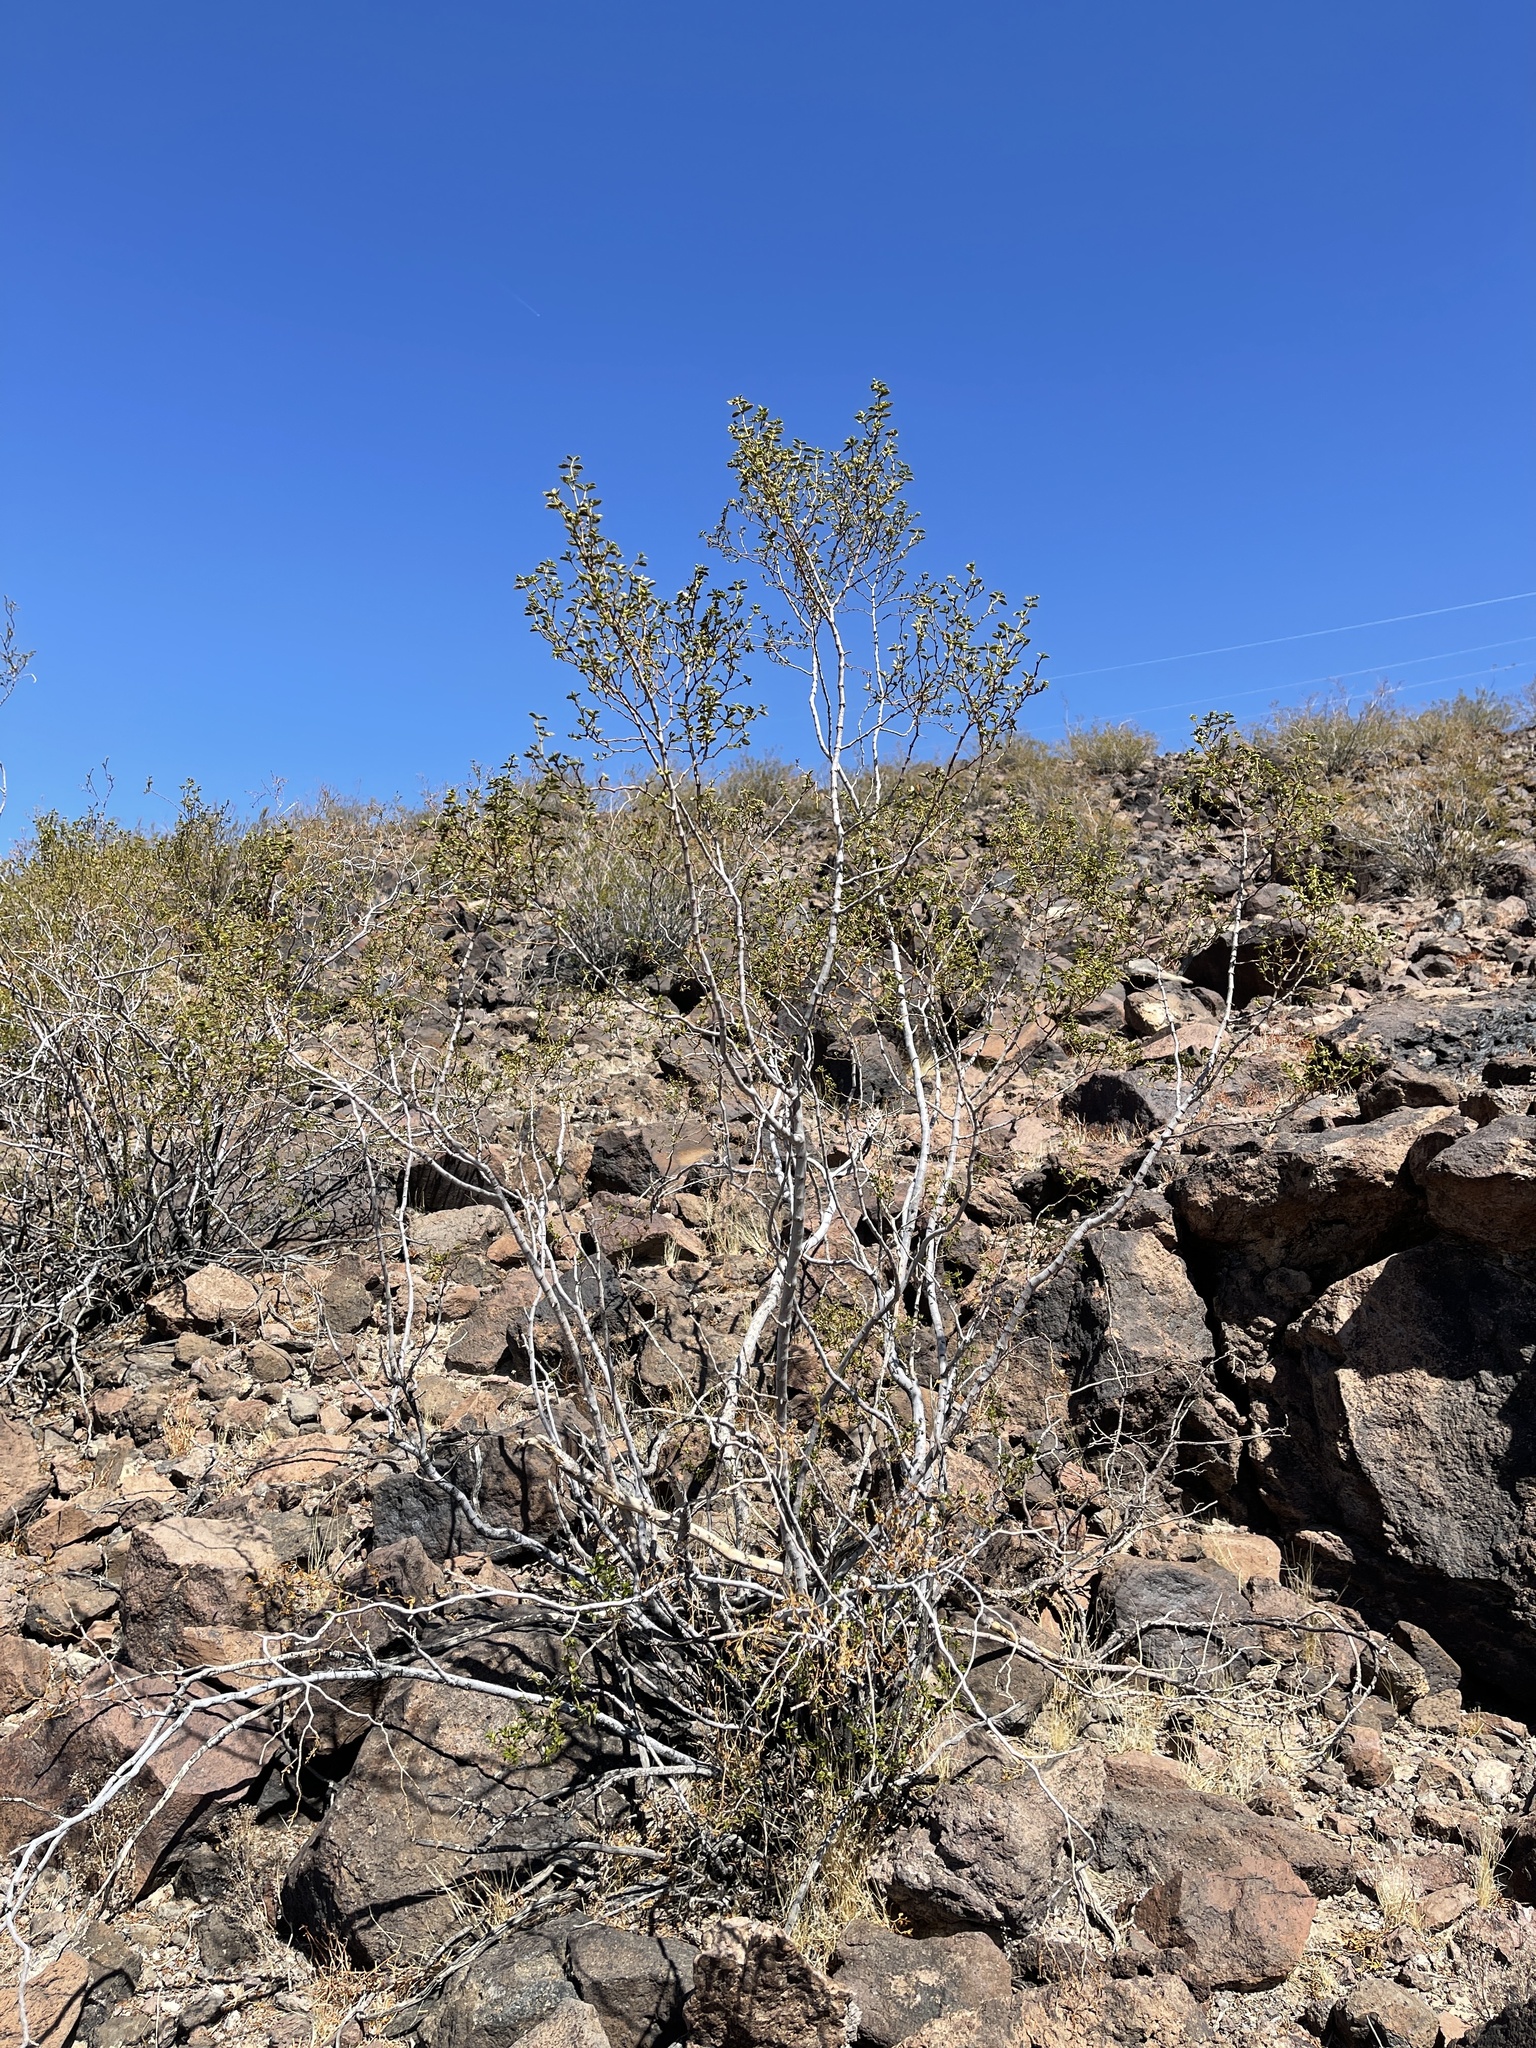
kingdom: Plantae
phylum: Tracheophyta
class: Magnoliopsida
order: Zygophyllales
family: Zygophyllaceae
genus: Larrea
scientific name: Larrea tridentata
